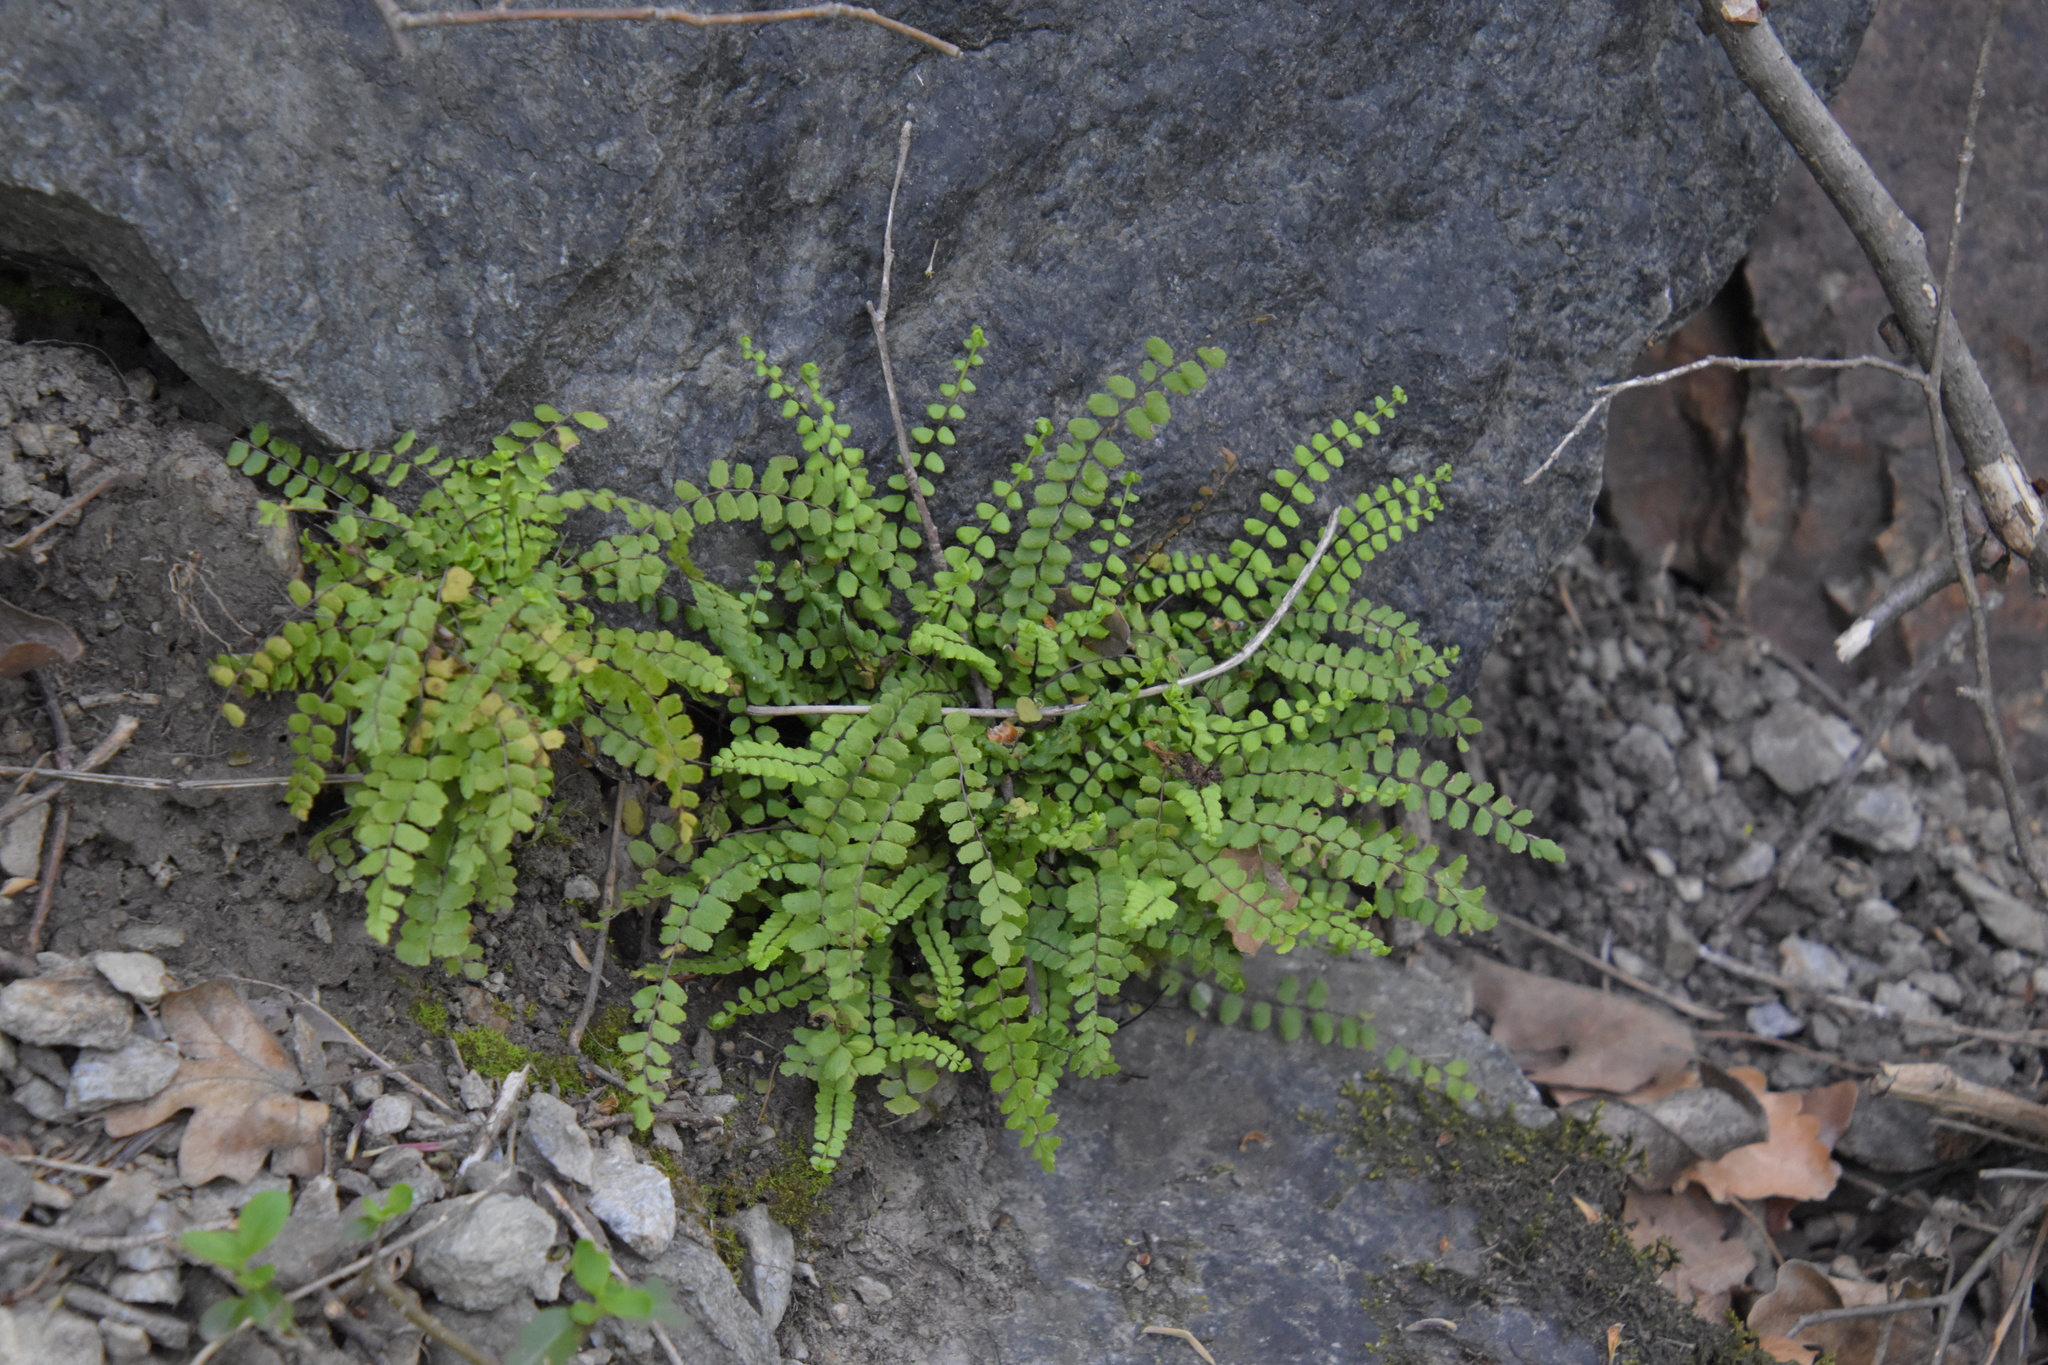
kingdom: Plantae
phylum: Tracheophyta
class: Polypodiopsida
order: Polypodiales
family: Aspleniaceae
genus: Asplenium
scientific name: Asplenium trichomanes
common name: Maidenhair spleenwort
